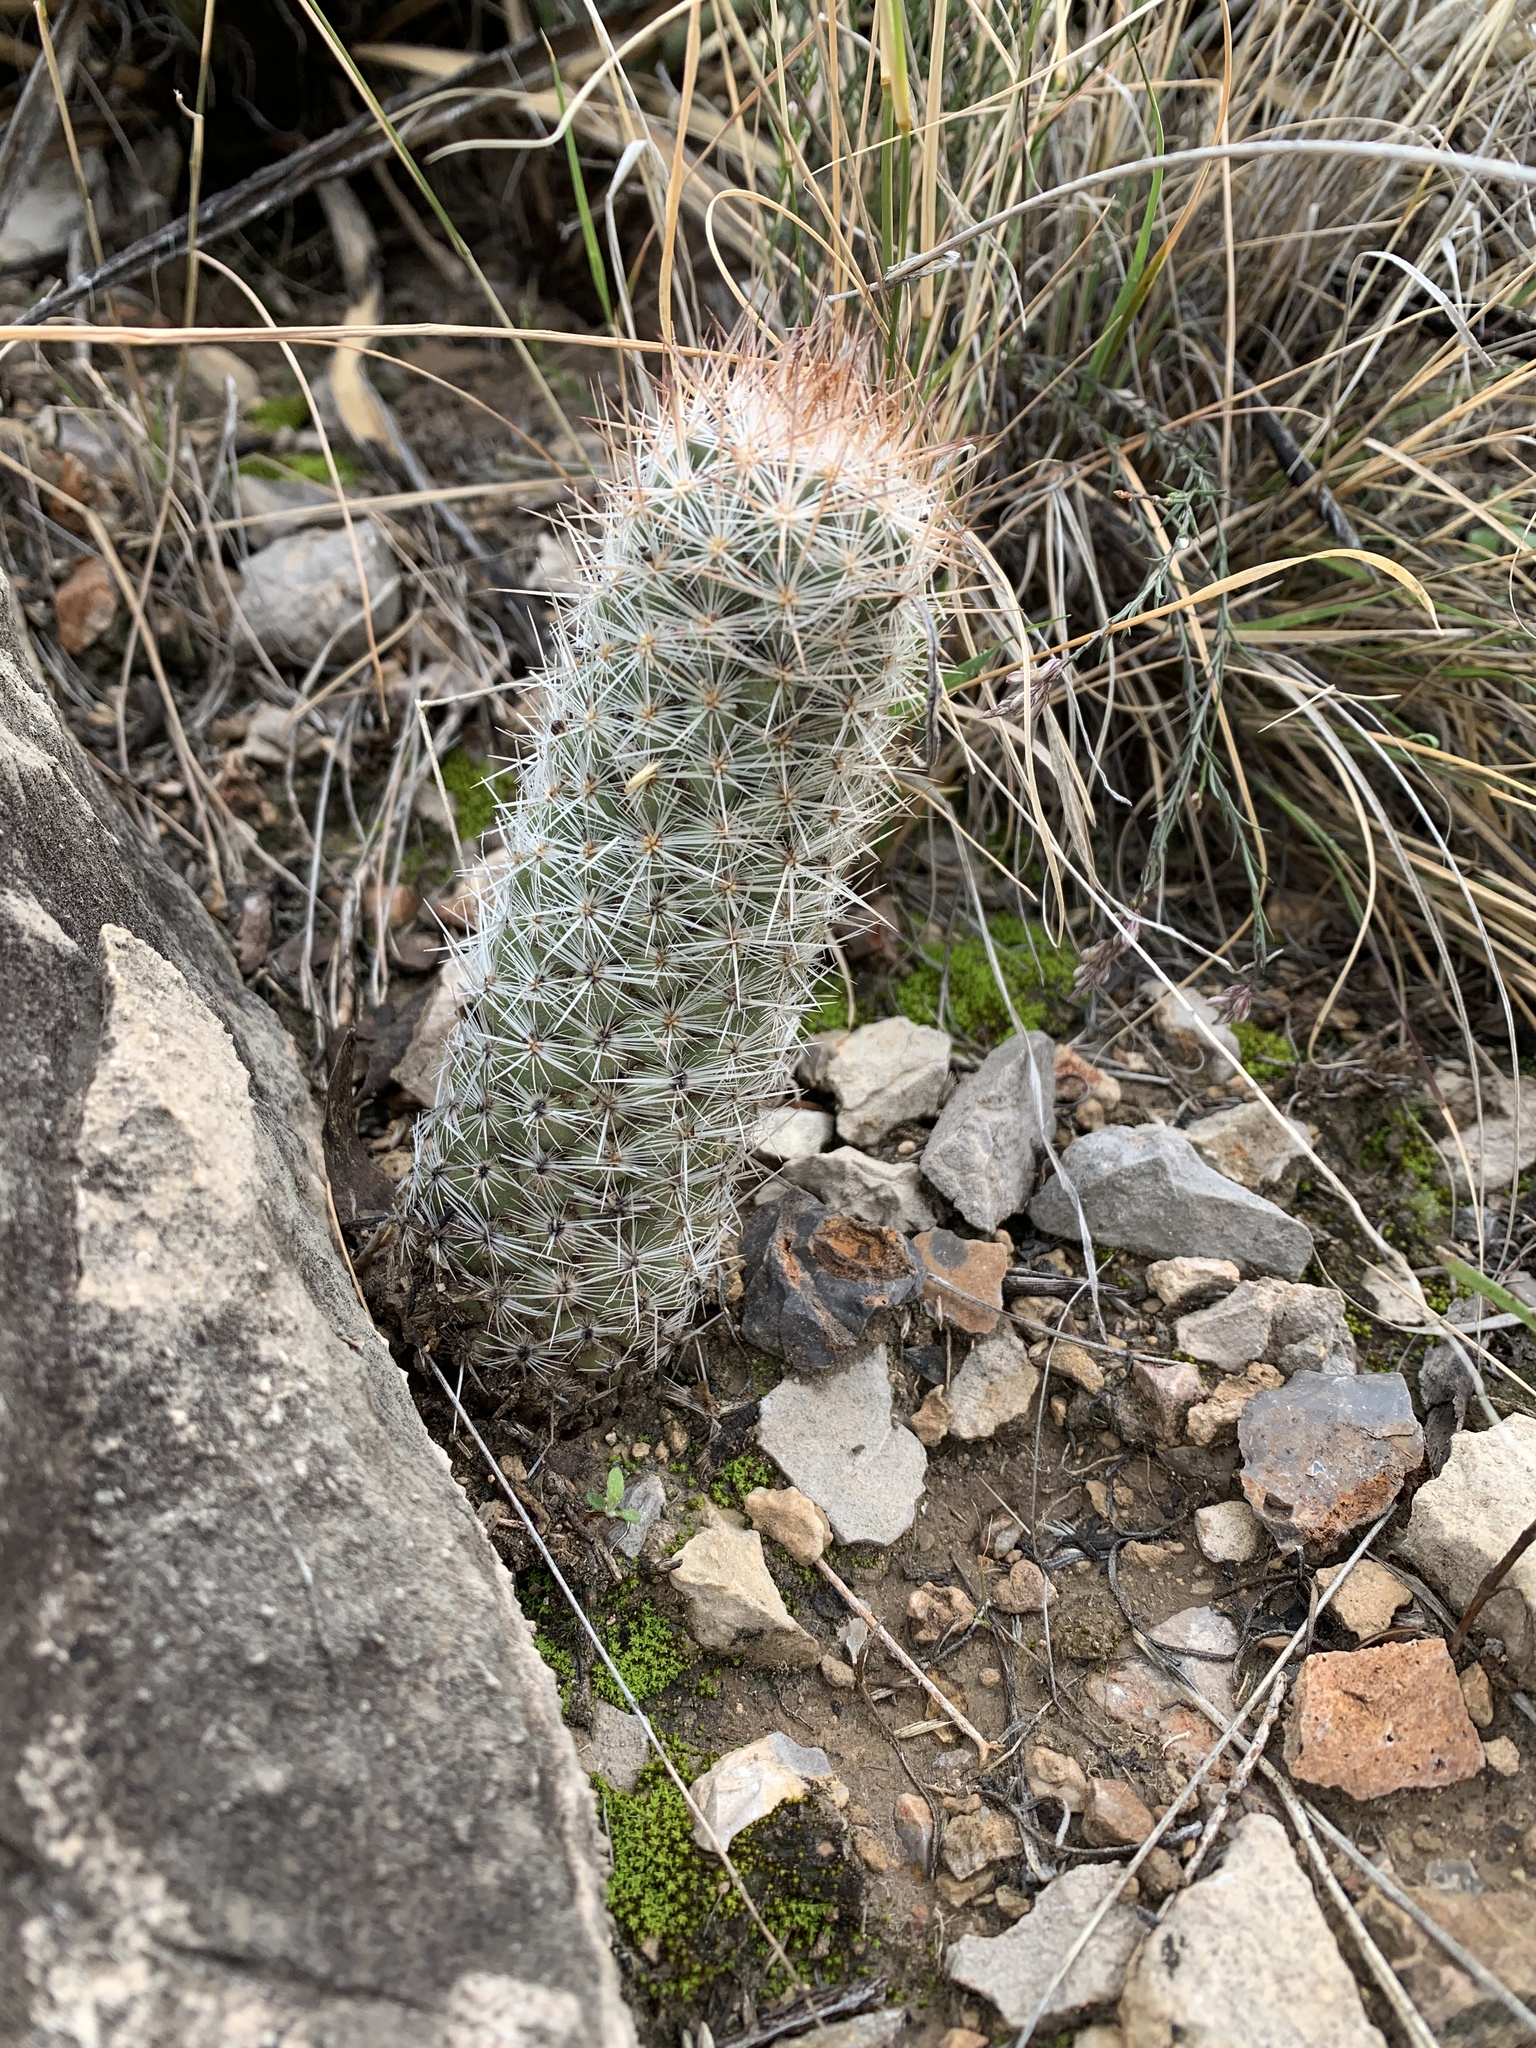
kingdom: Plantae
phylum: Tracheophyta
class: Magnoliopsida
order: Caryophyllales
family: Cactaceae
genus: Pelecyphora
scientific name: Pelecyphora tuberculosa
